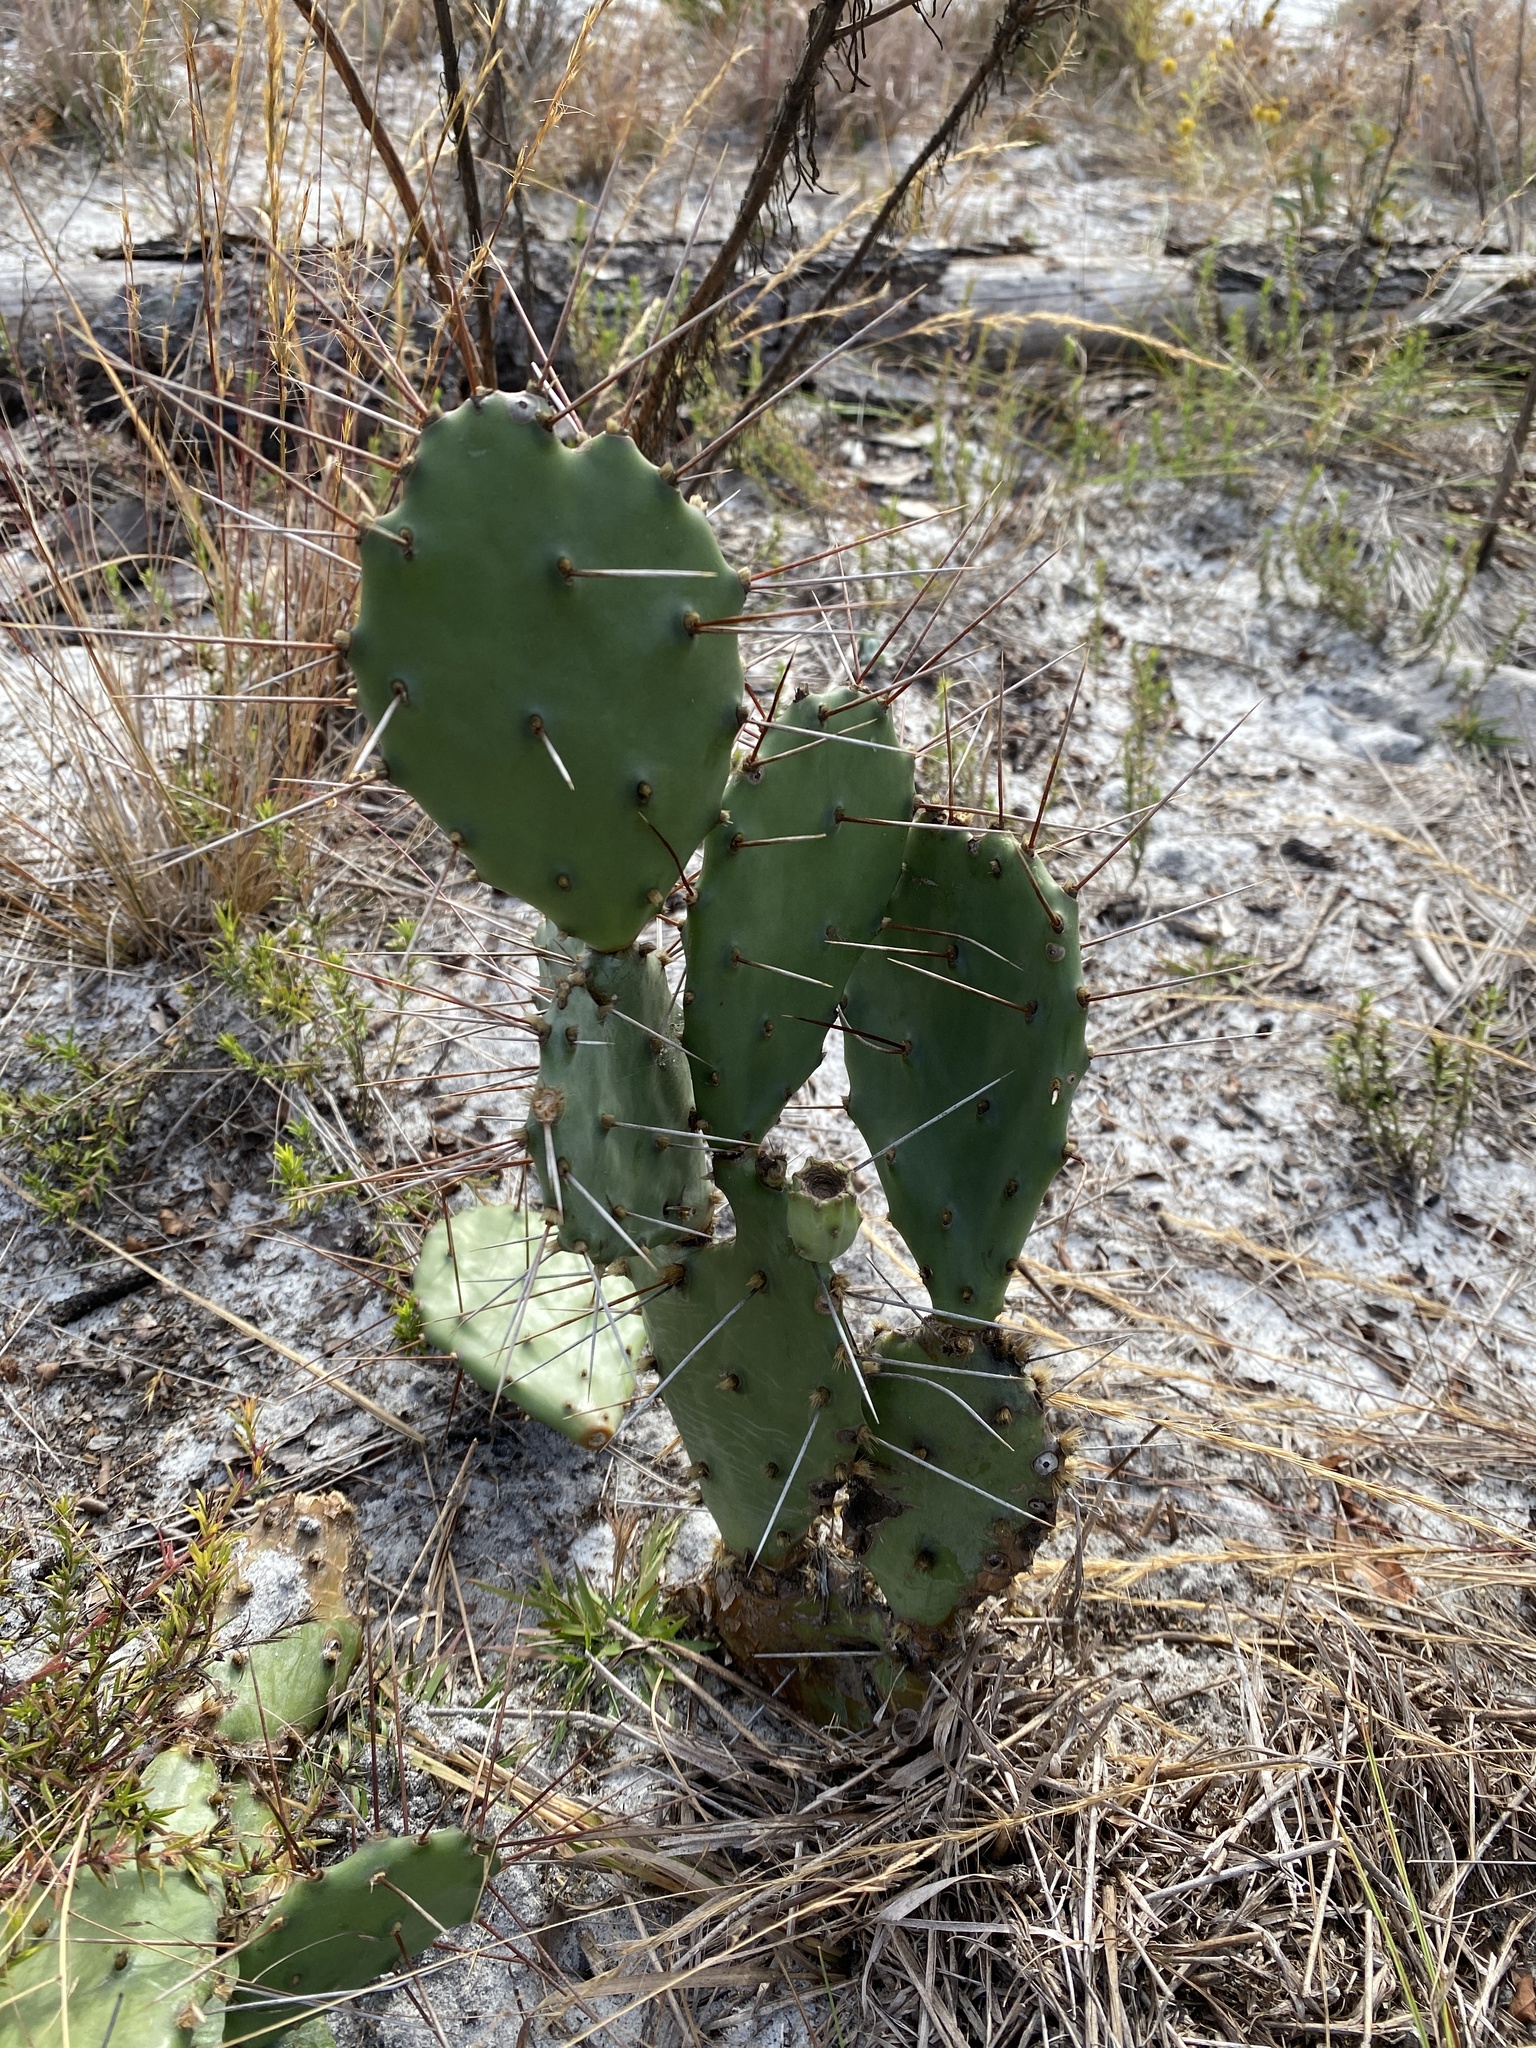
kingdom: Plantae
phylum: Tracheophyta
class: Magnoliopsida
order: Caryophyllales
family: Cactaceae
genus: Opuntia
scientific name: Opuntia austrina
